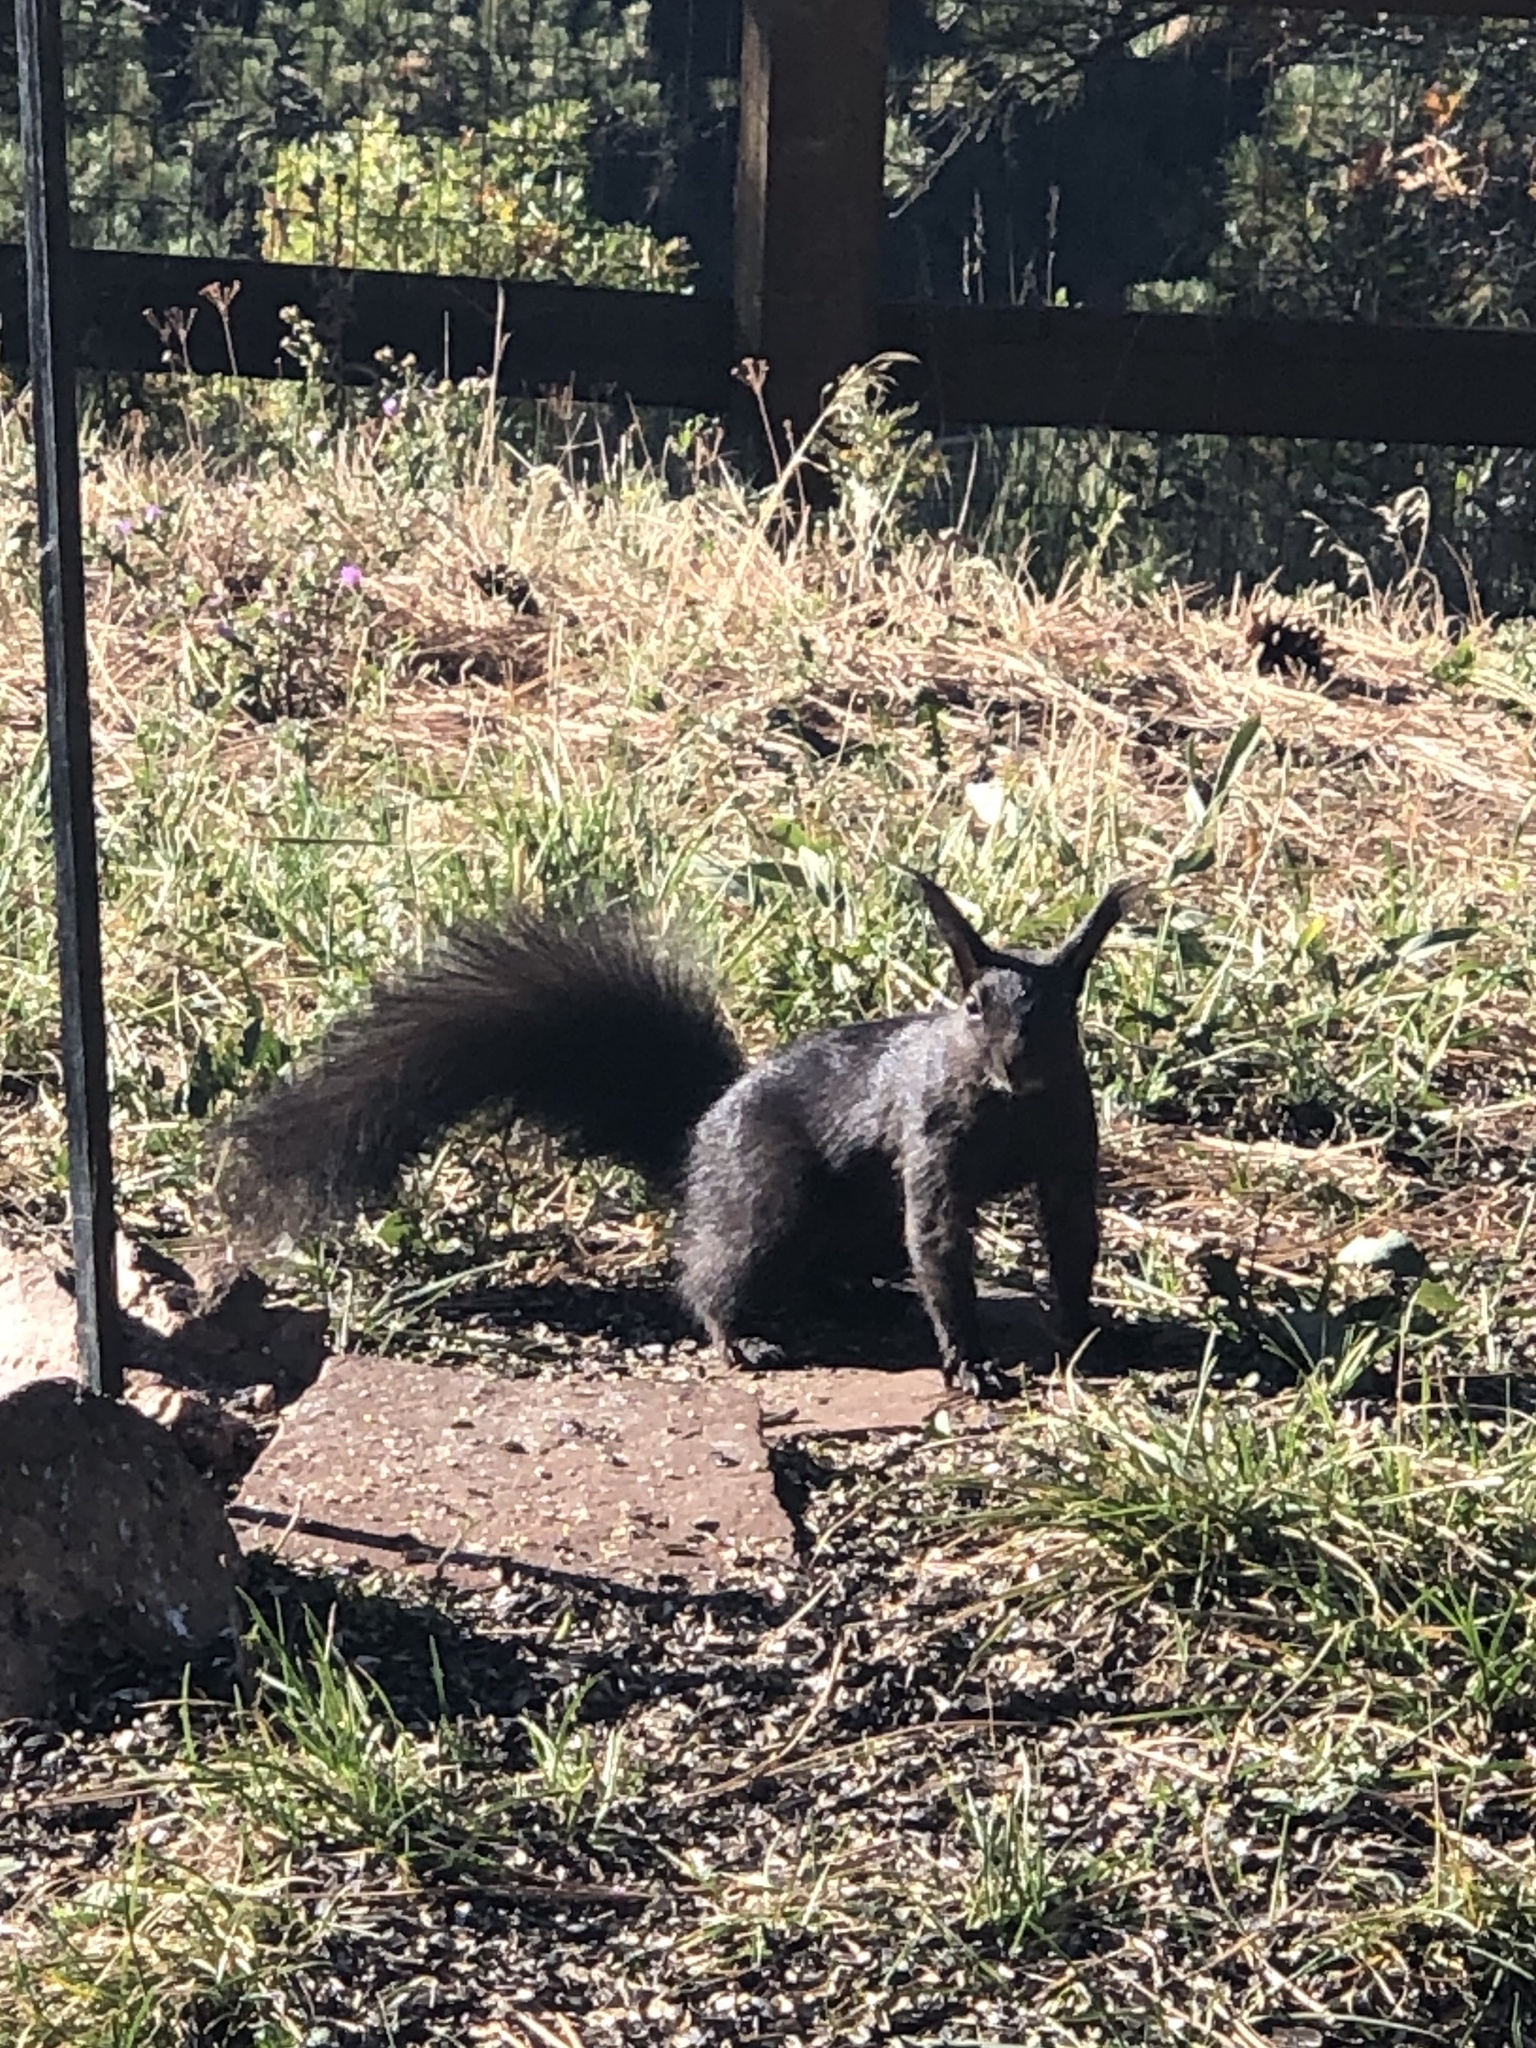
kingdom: Animalia
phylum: Chordata
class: Mammalia
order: Rodentia
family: Sciuridae
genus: Sciurus
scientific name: Sciurus aberti
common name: Abert's squirrel
